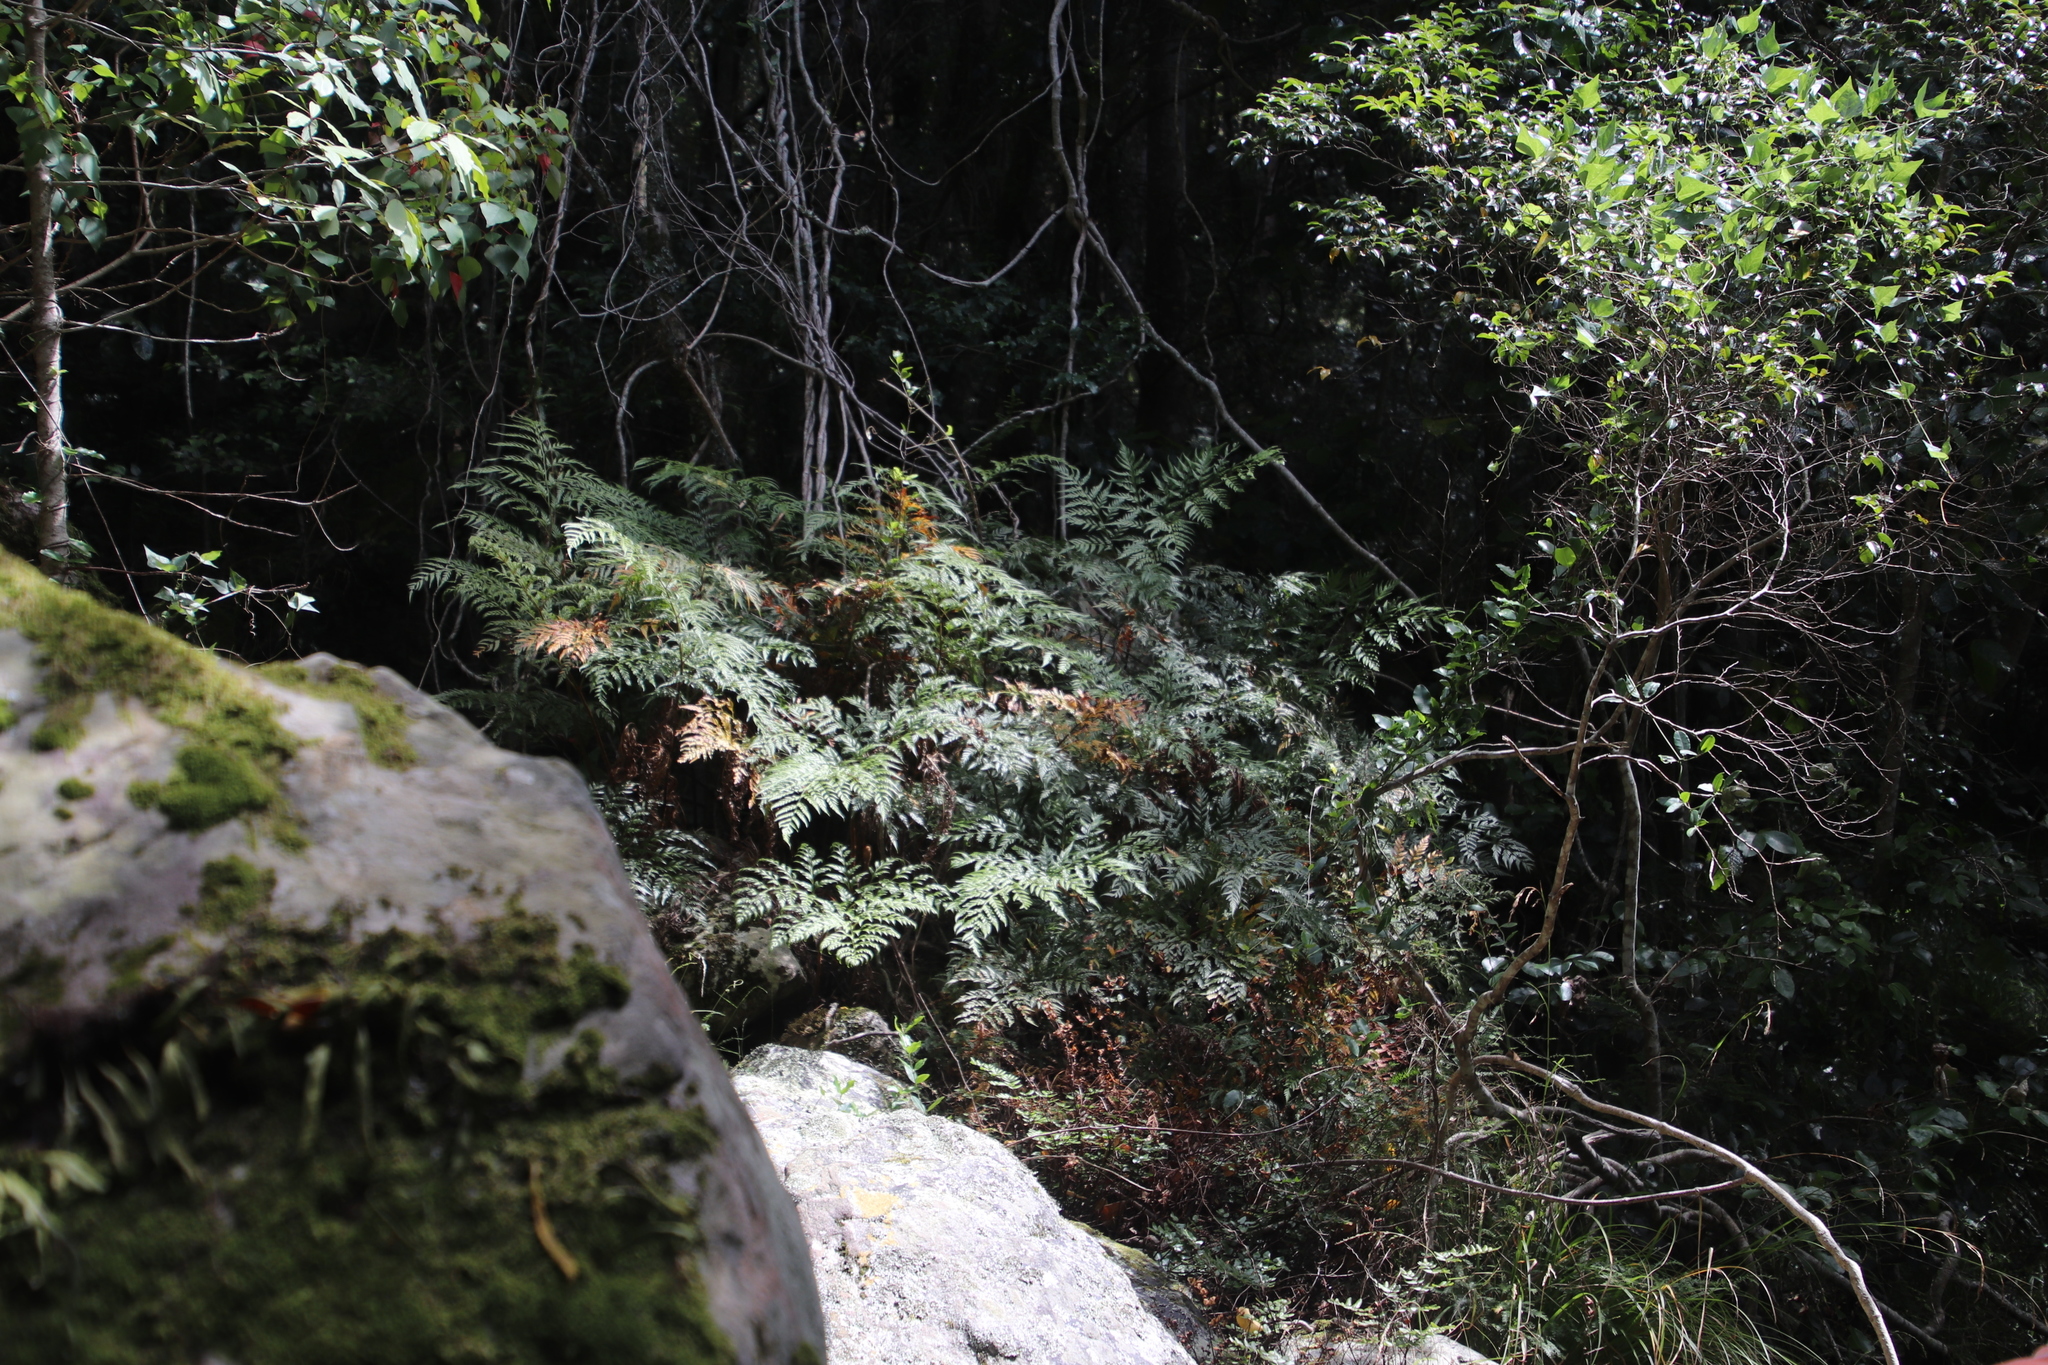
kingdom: Plantae
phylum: Tracheophyta
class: Polypodiopsida
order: Polypodiales
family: Dryopteridaceae
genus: Rumohra
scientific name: Rumohra adiantiformis
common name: Leather fern
